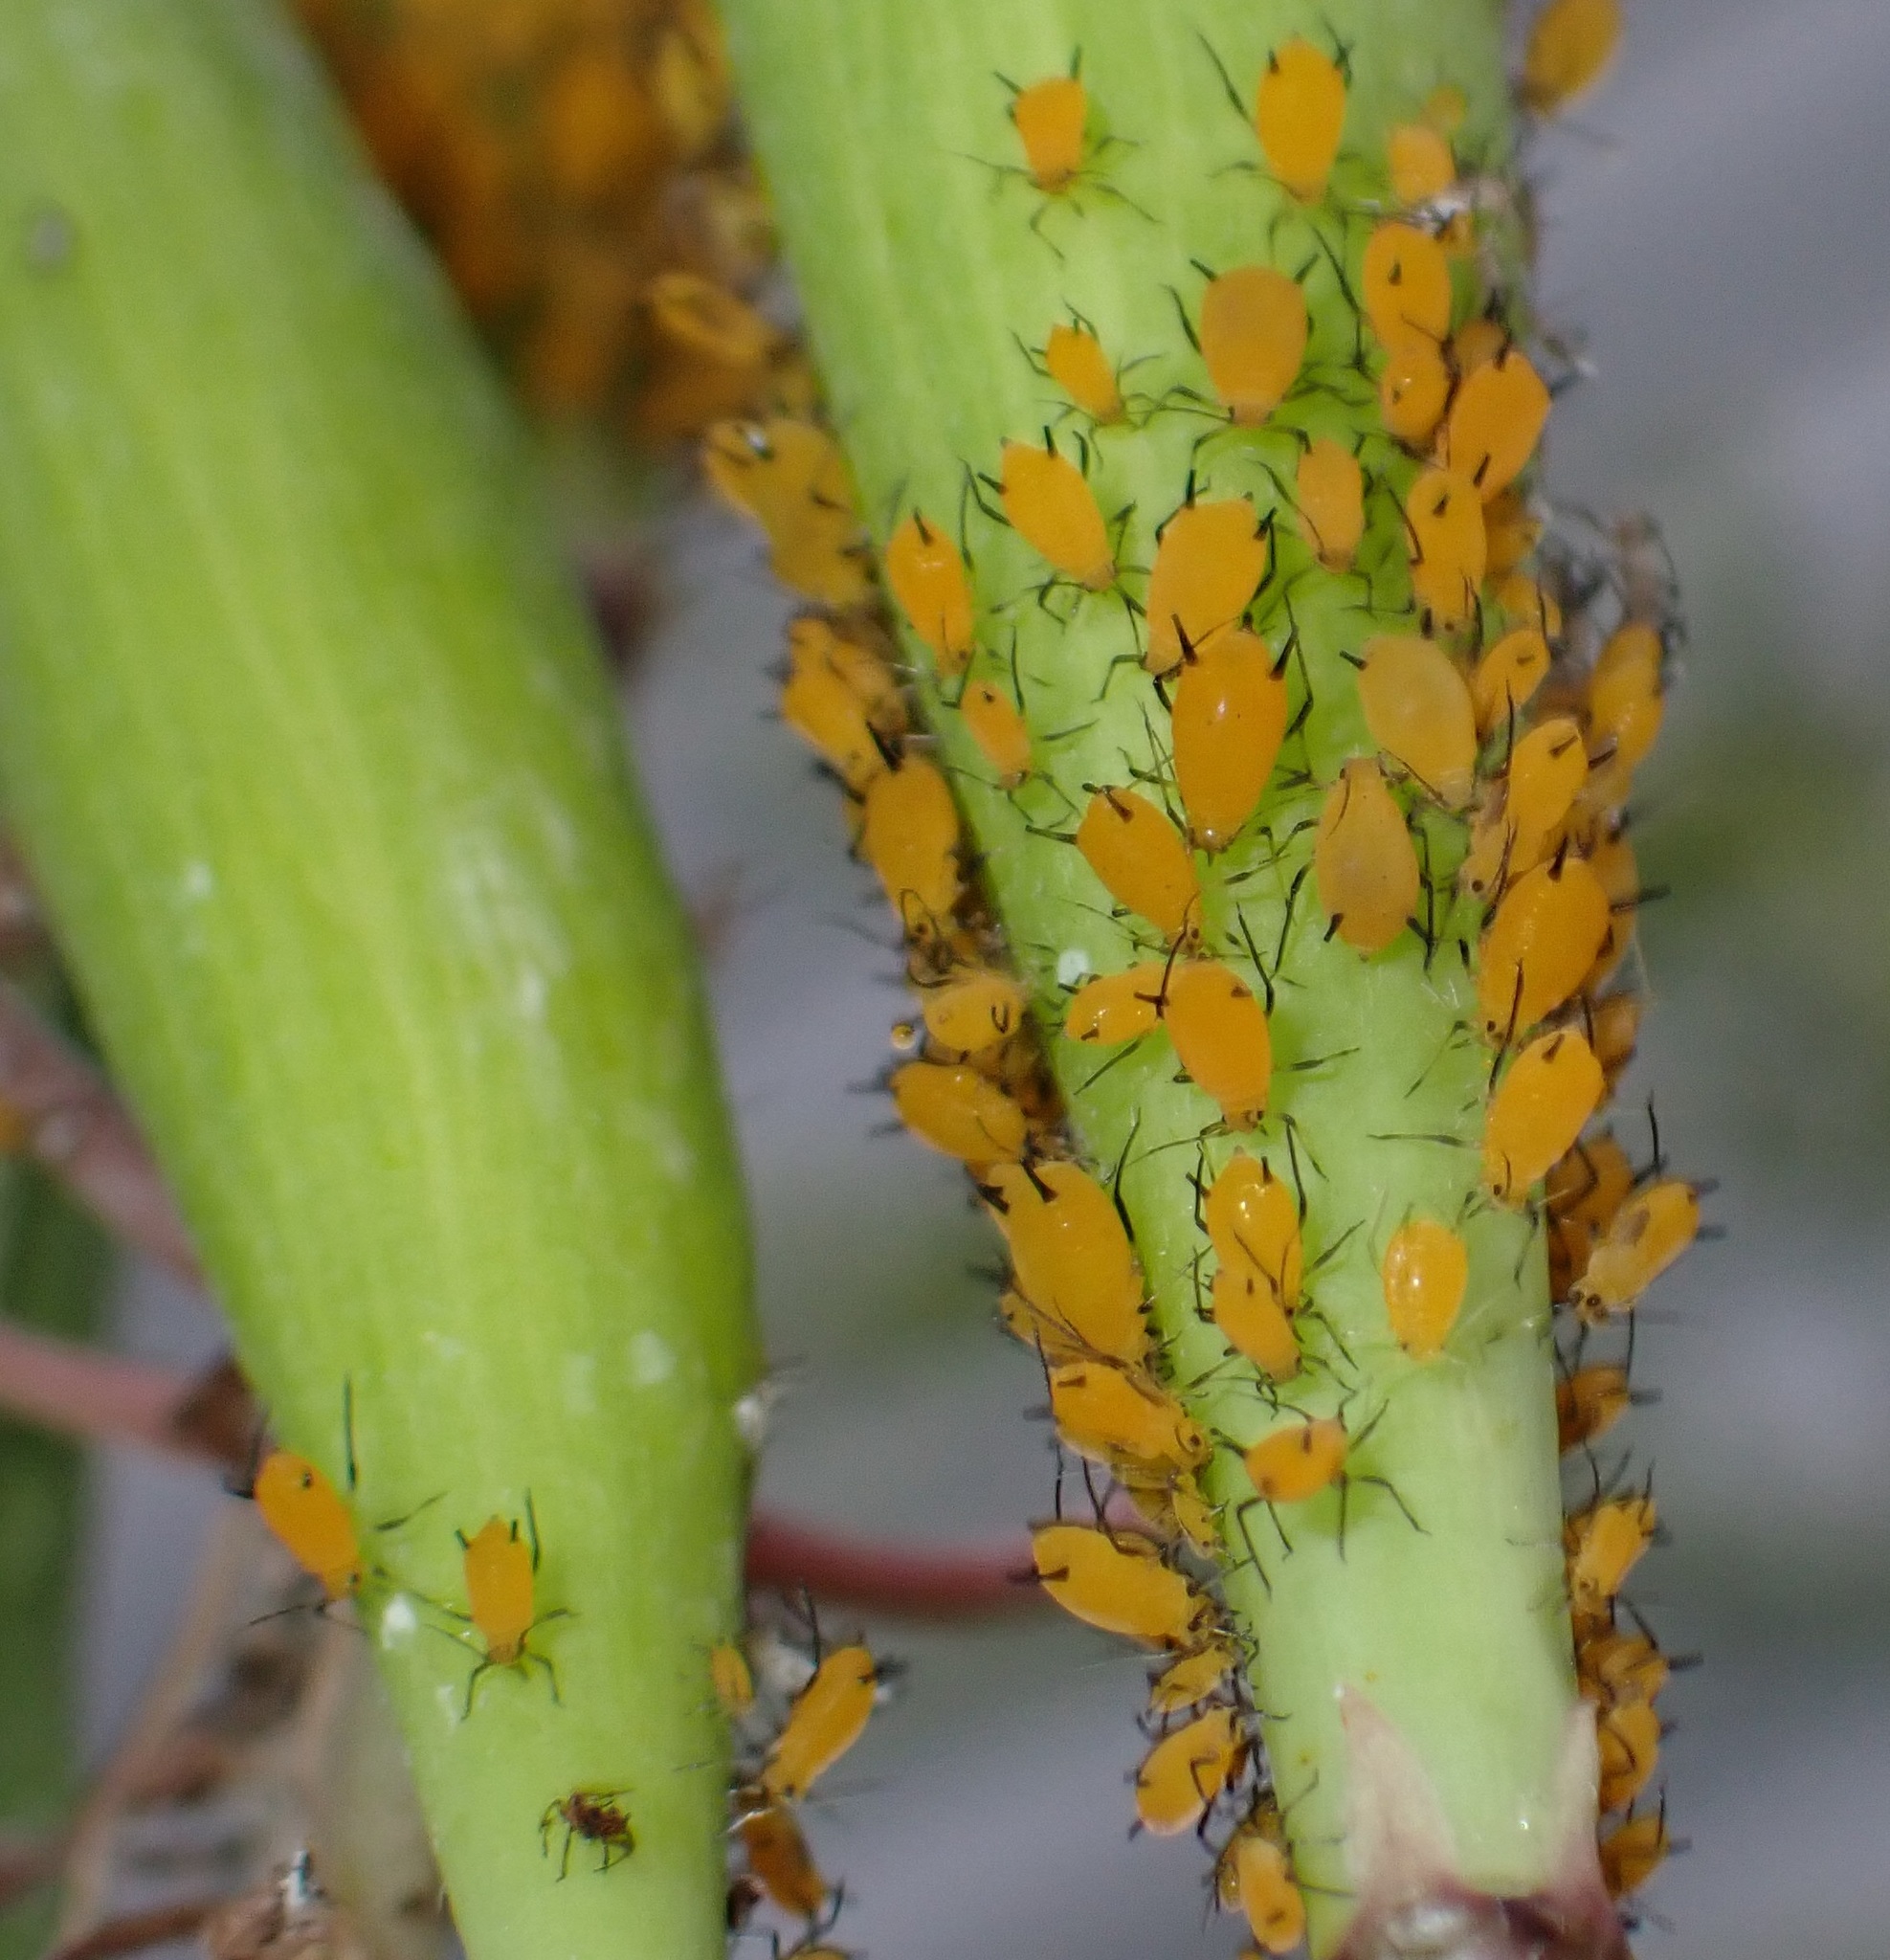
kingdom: Animalia
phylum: Arthropoda
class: Insecta
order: Hemiptera
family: Aphididae
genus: Aphis
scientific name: Aphis nerii
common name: Oleander aphid
